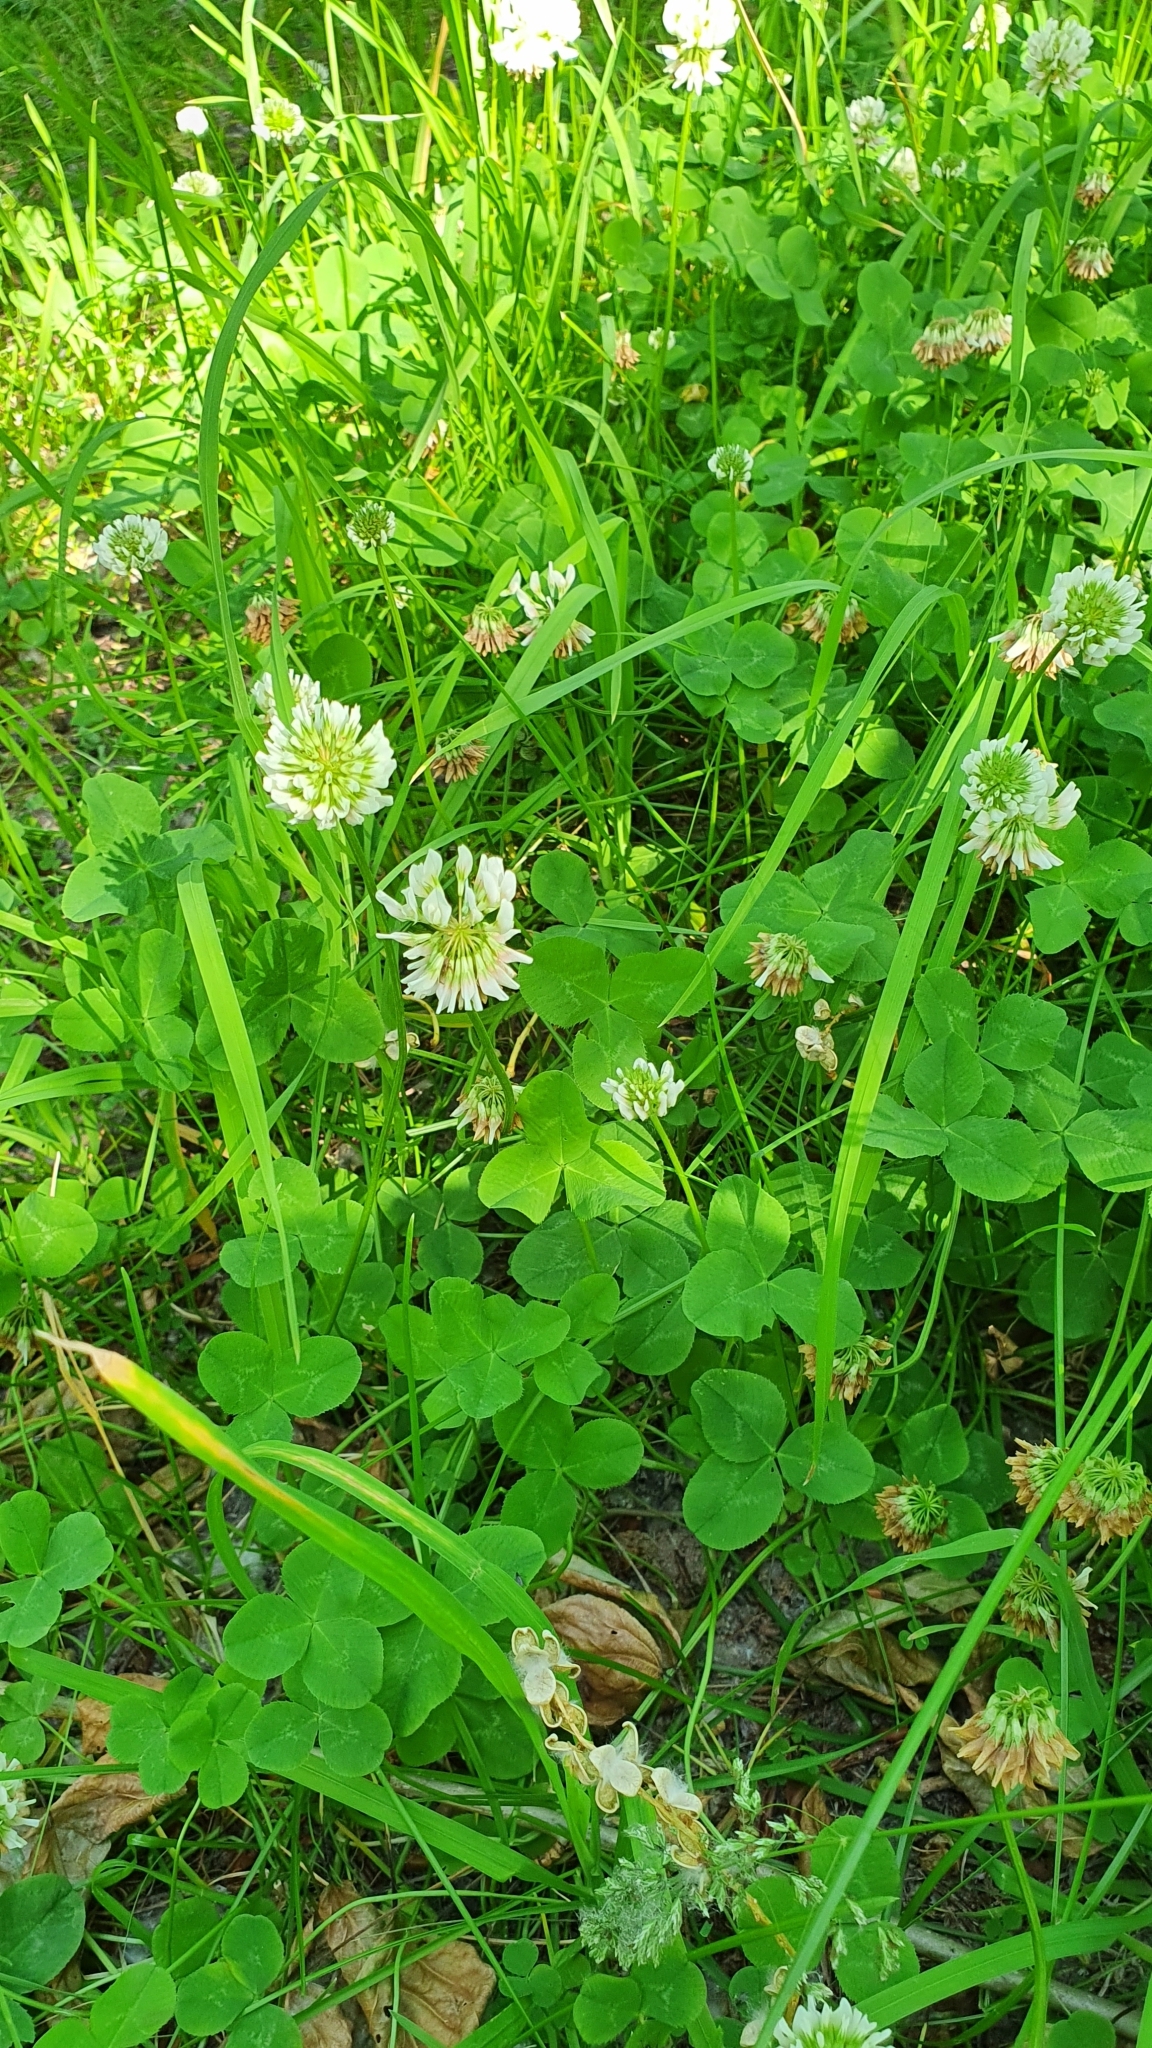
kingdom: Plantae
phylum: Tracheophyta
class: Magnoliopsida
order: Fabales
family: Fabaceae
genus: Trifolium
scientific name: Trifolium repens
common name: White clover
